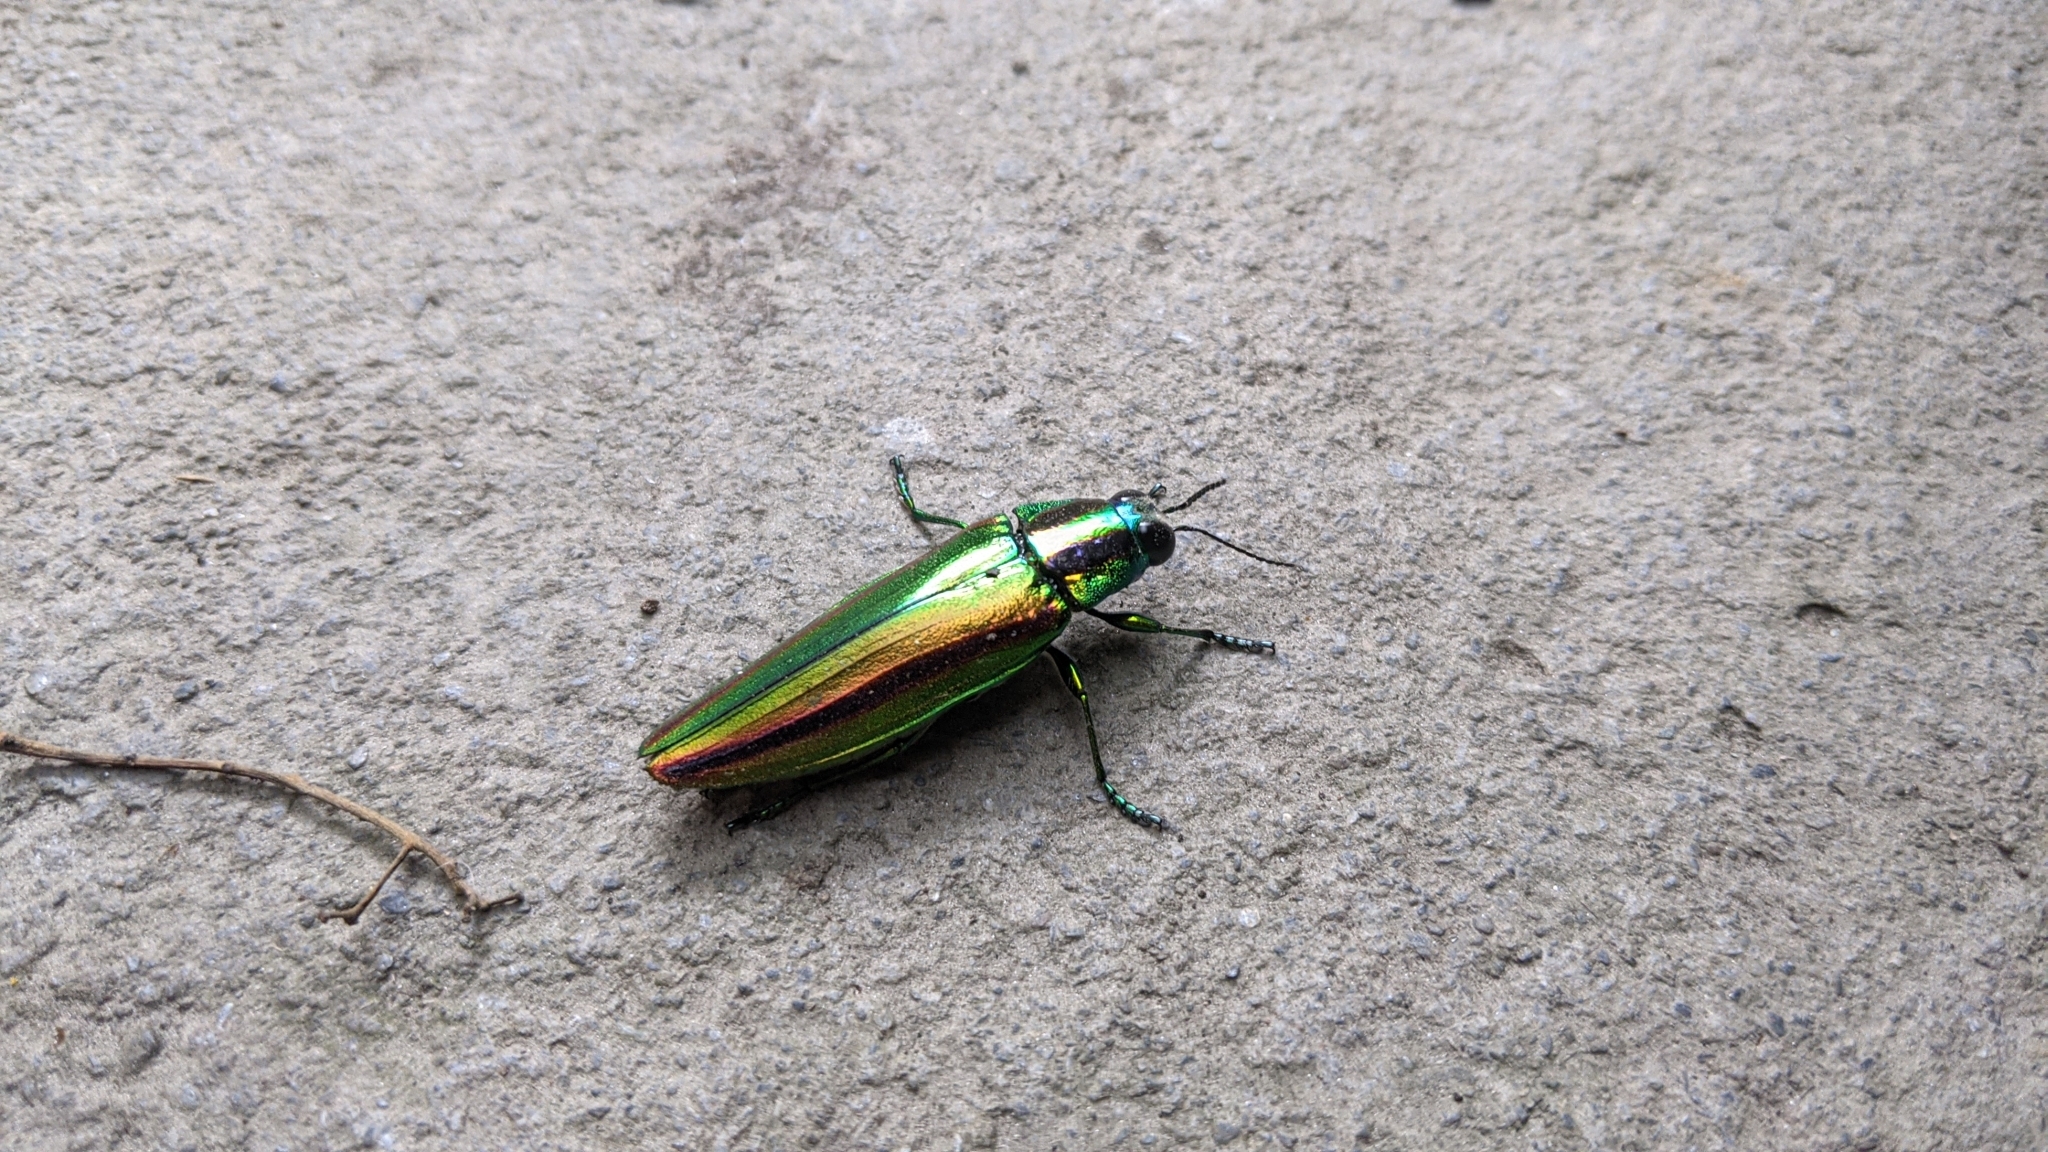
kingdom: Animalia
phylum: Arthropoda
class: Insecta
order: Coleoptera
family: Buprestidae
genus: Chrysochroa
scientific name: Chrysochroa fulgidissima
